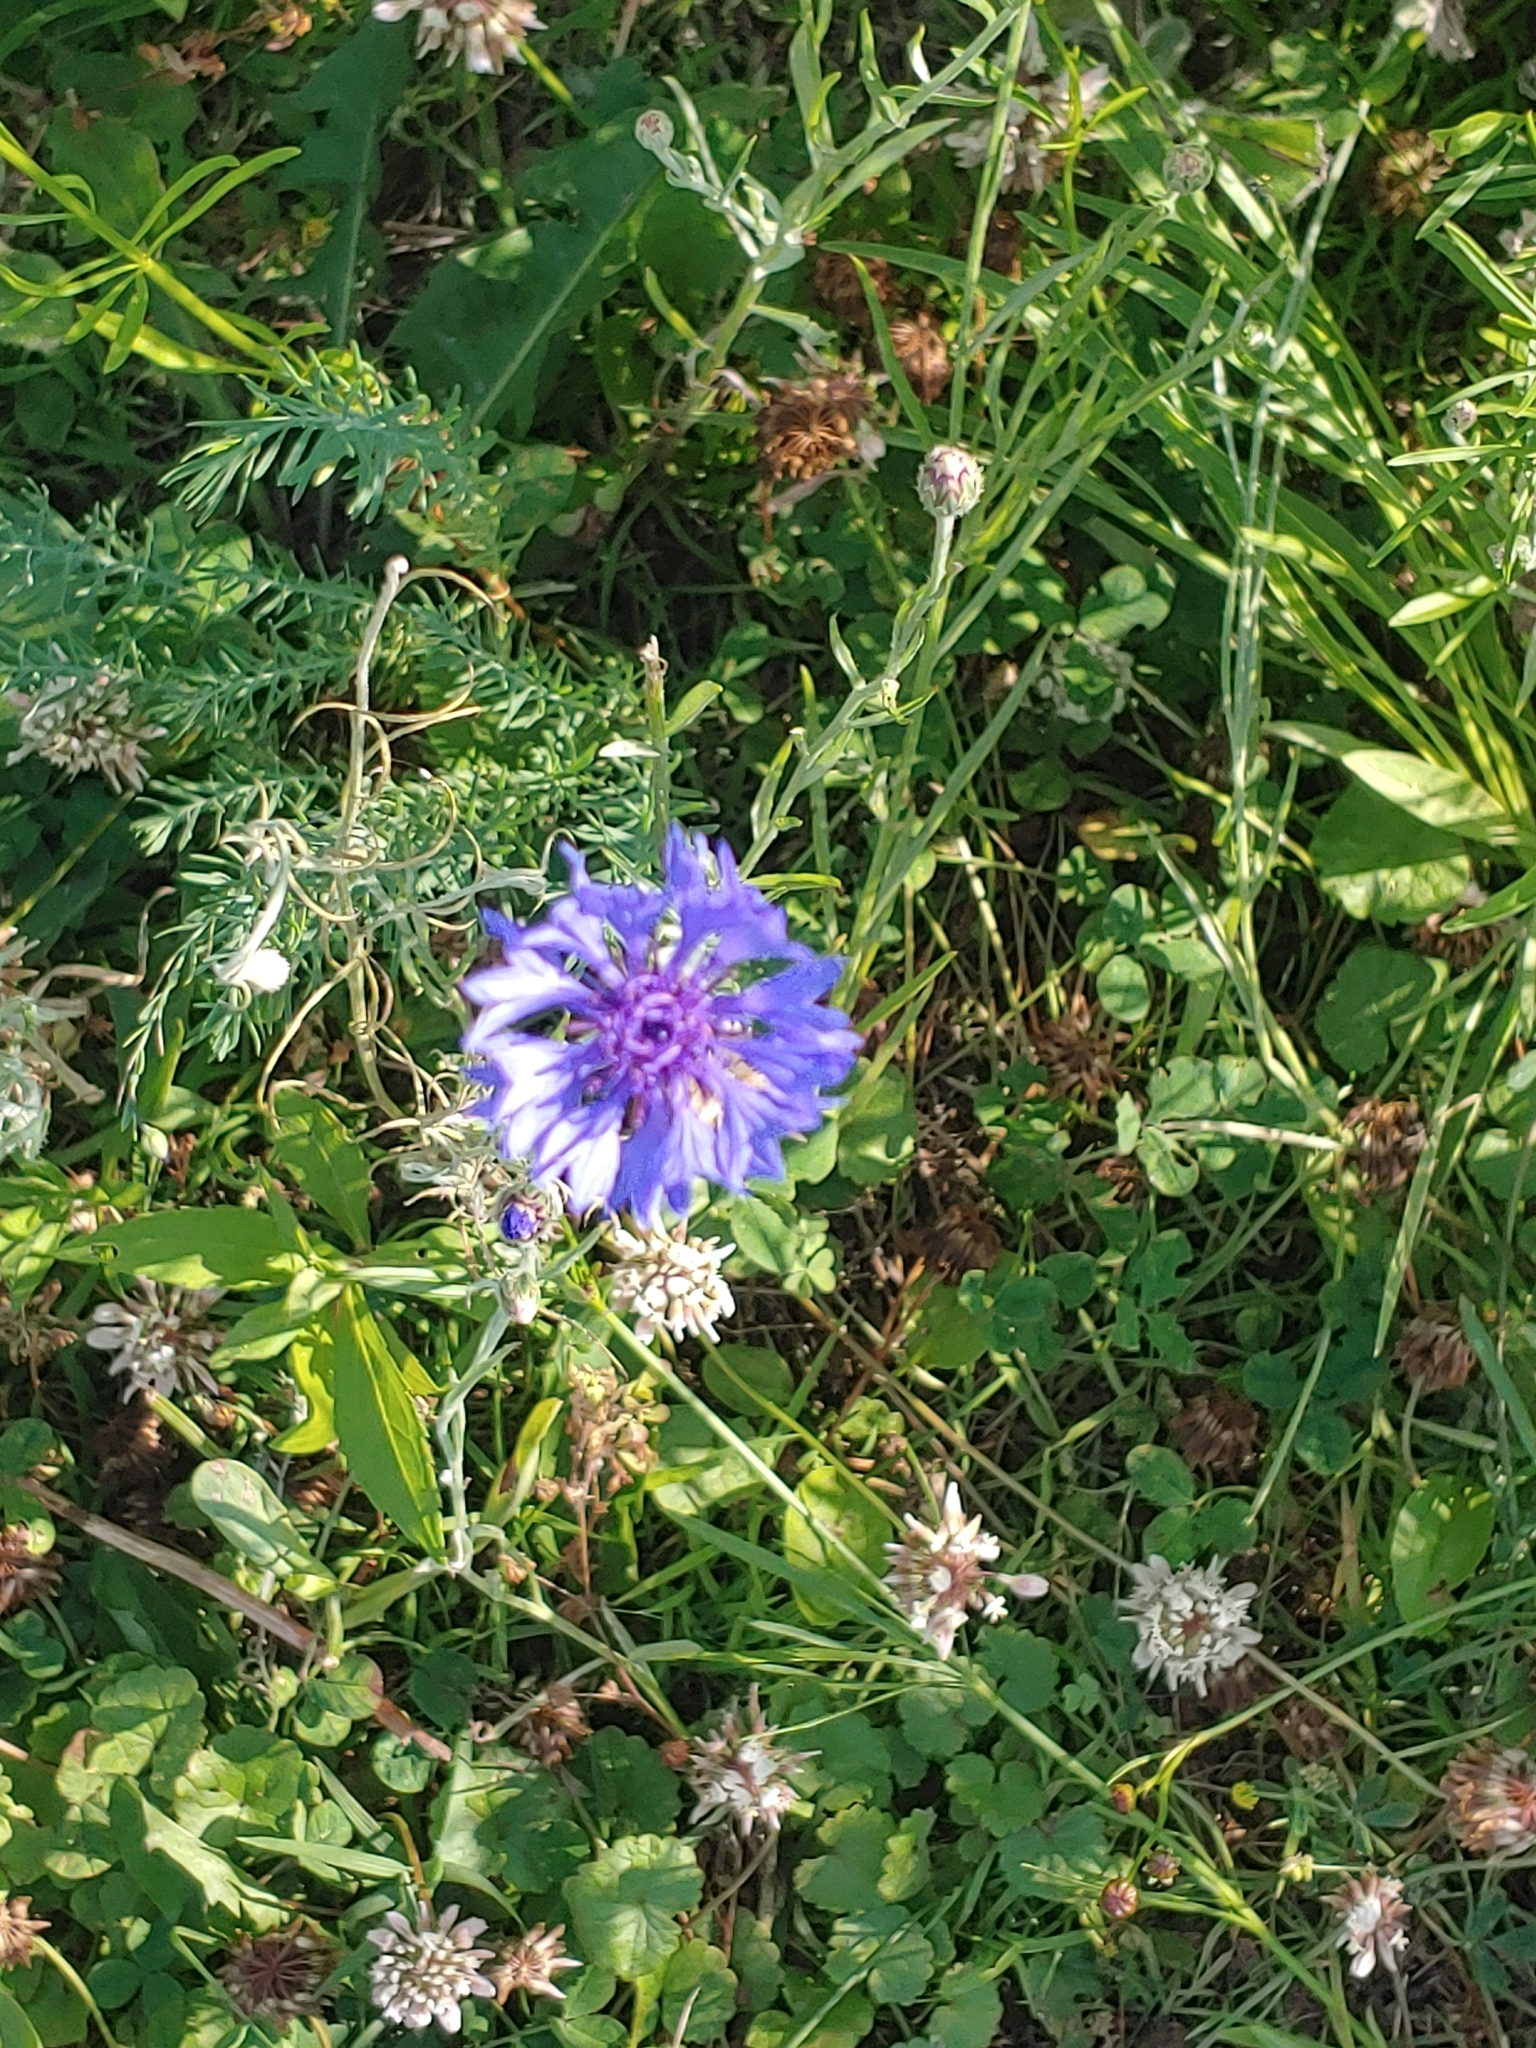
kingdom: Plantae
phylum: Tracheophyta
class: Magnoliopsida
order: Asterales
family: Asteraceae
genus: Centaurea
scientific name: Centaurea cyanus
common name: Cornflower
